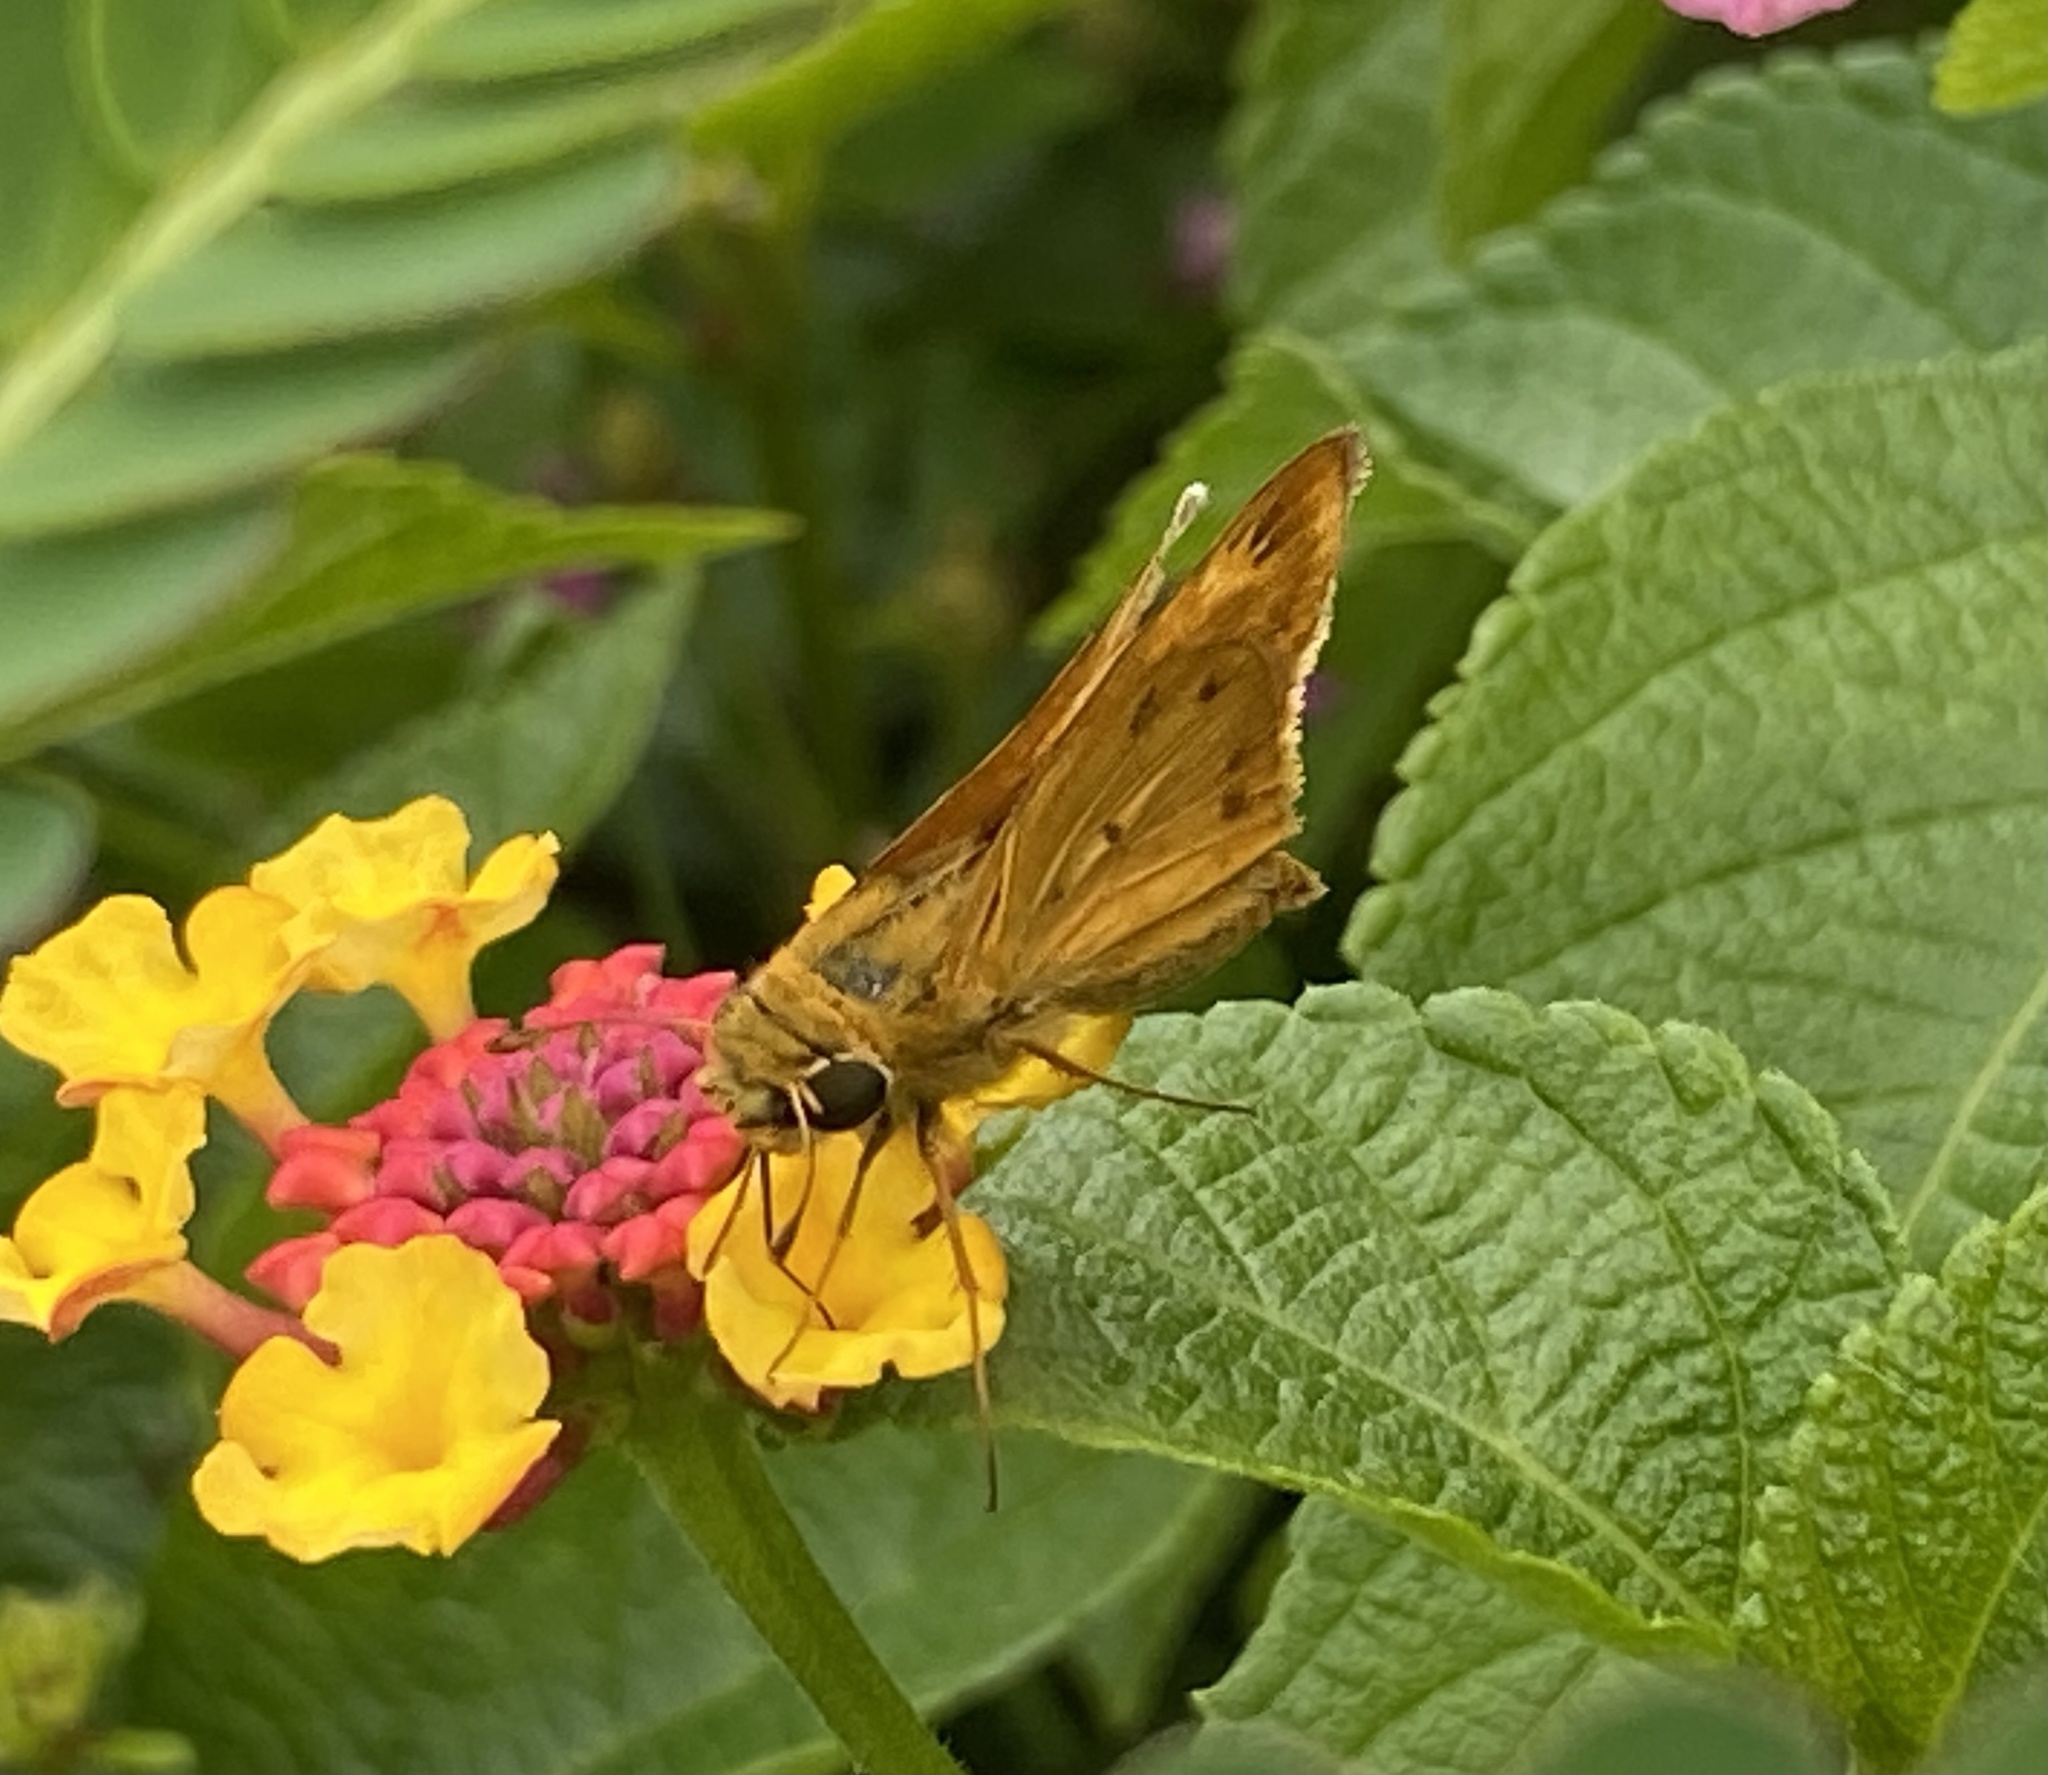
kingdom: Animalia
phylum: Arthropoda
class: Insecta
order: Lepidoptera
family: Hesperiidae
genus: Hylephila
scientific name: Hylephila phyleus
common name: Fiery skipper
